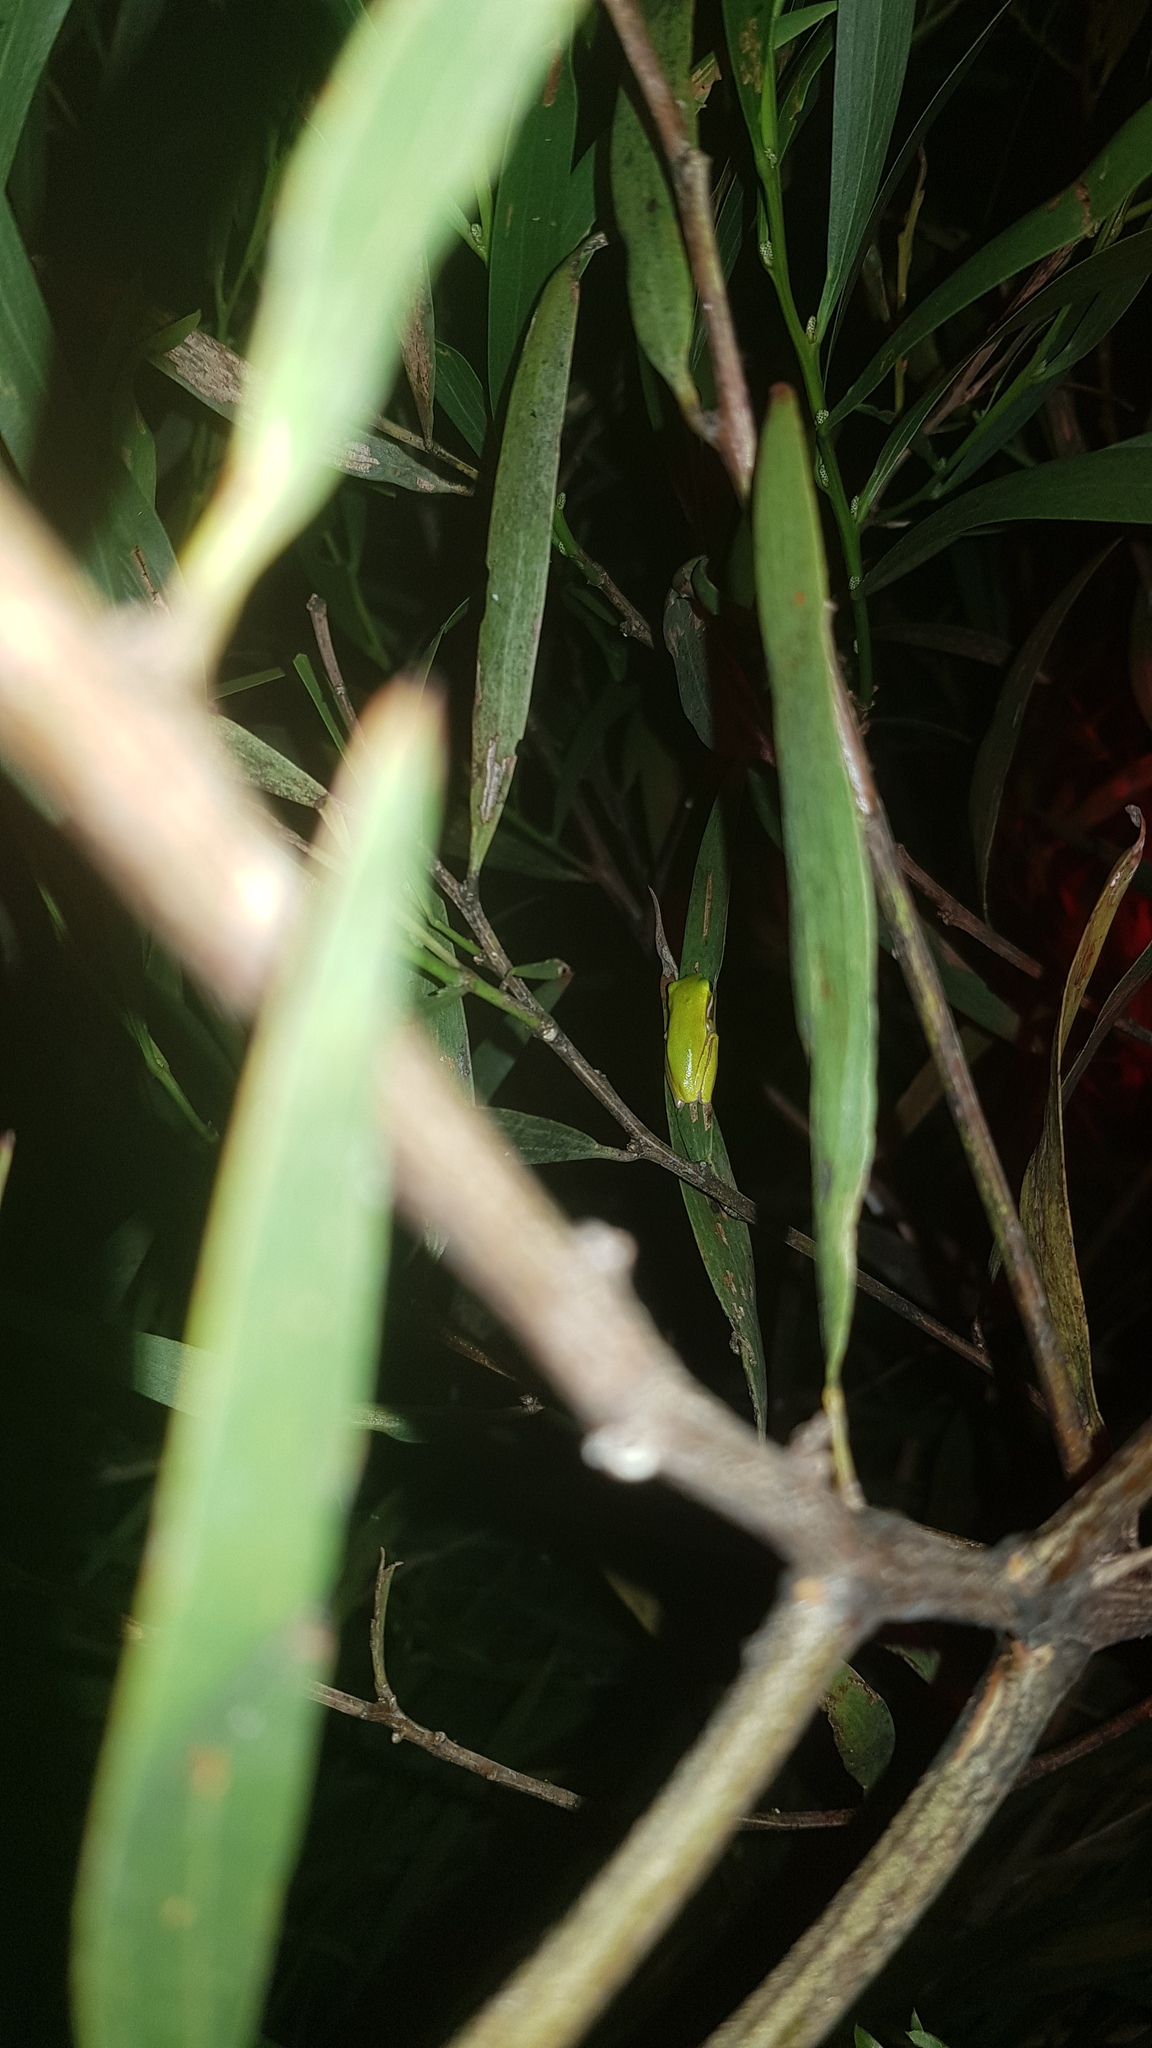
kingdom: Animalia
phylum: Chordata
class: Amphibia
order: Anura
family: Pelodryadidae
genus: Litoria
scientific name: Litoria fallax
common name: Eastern dwarf treefrog
